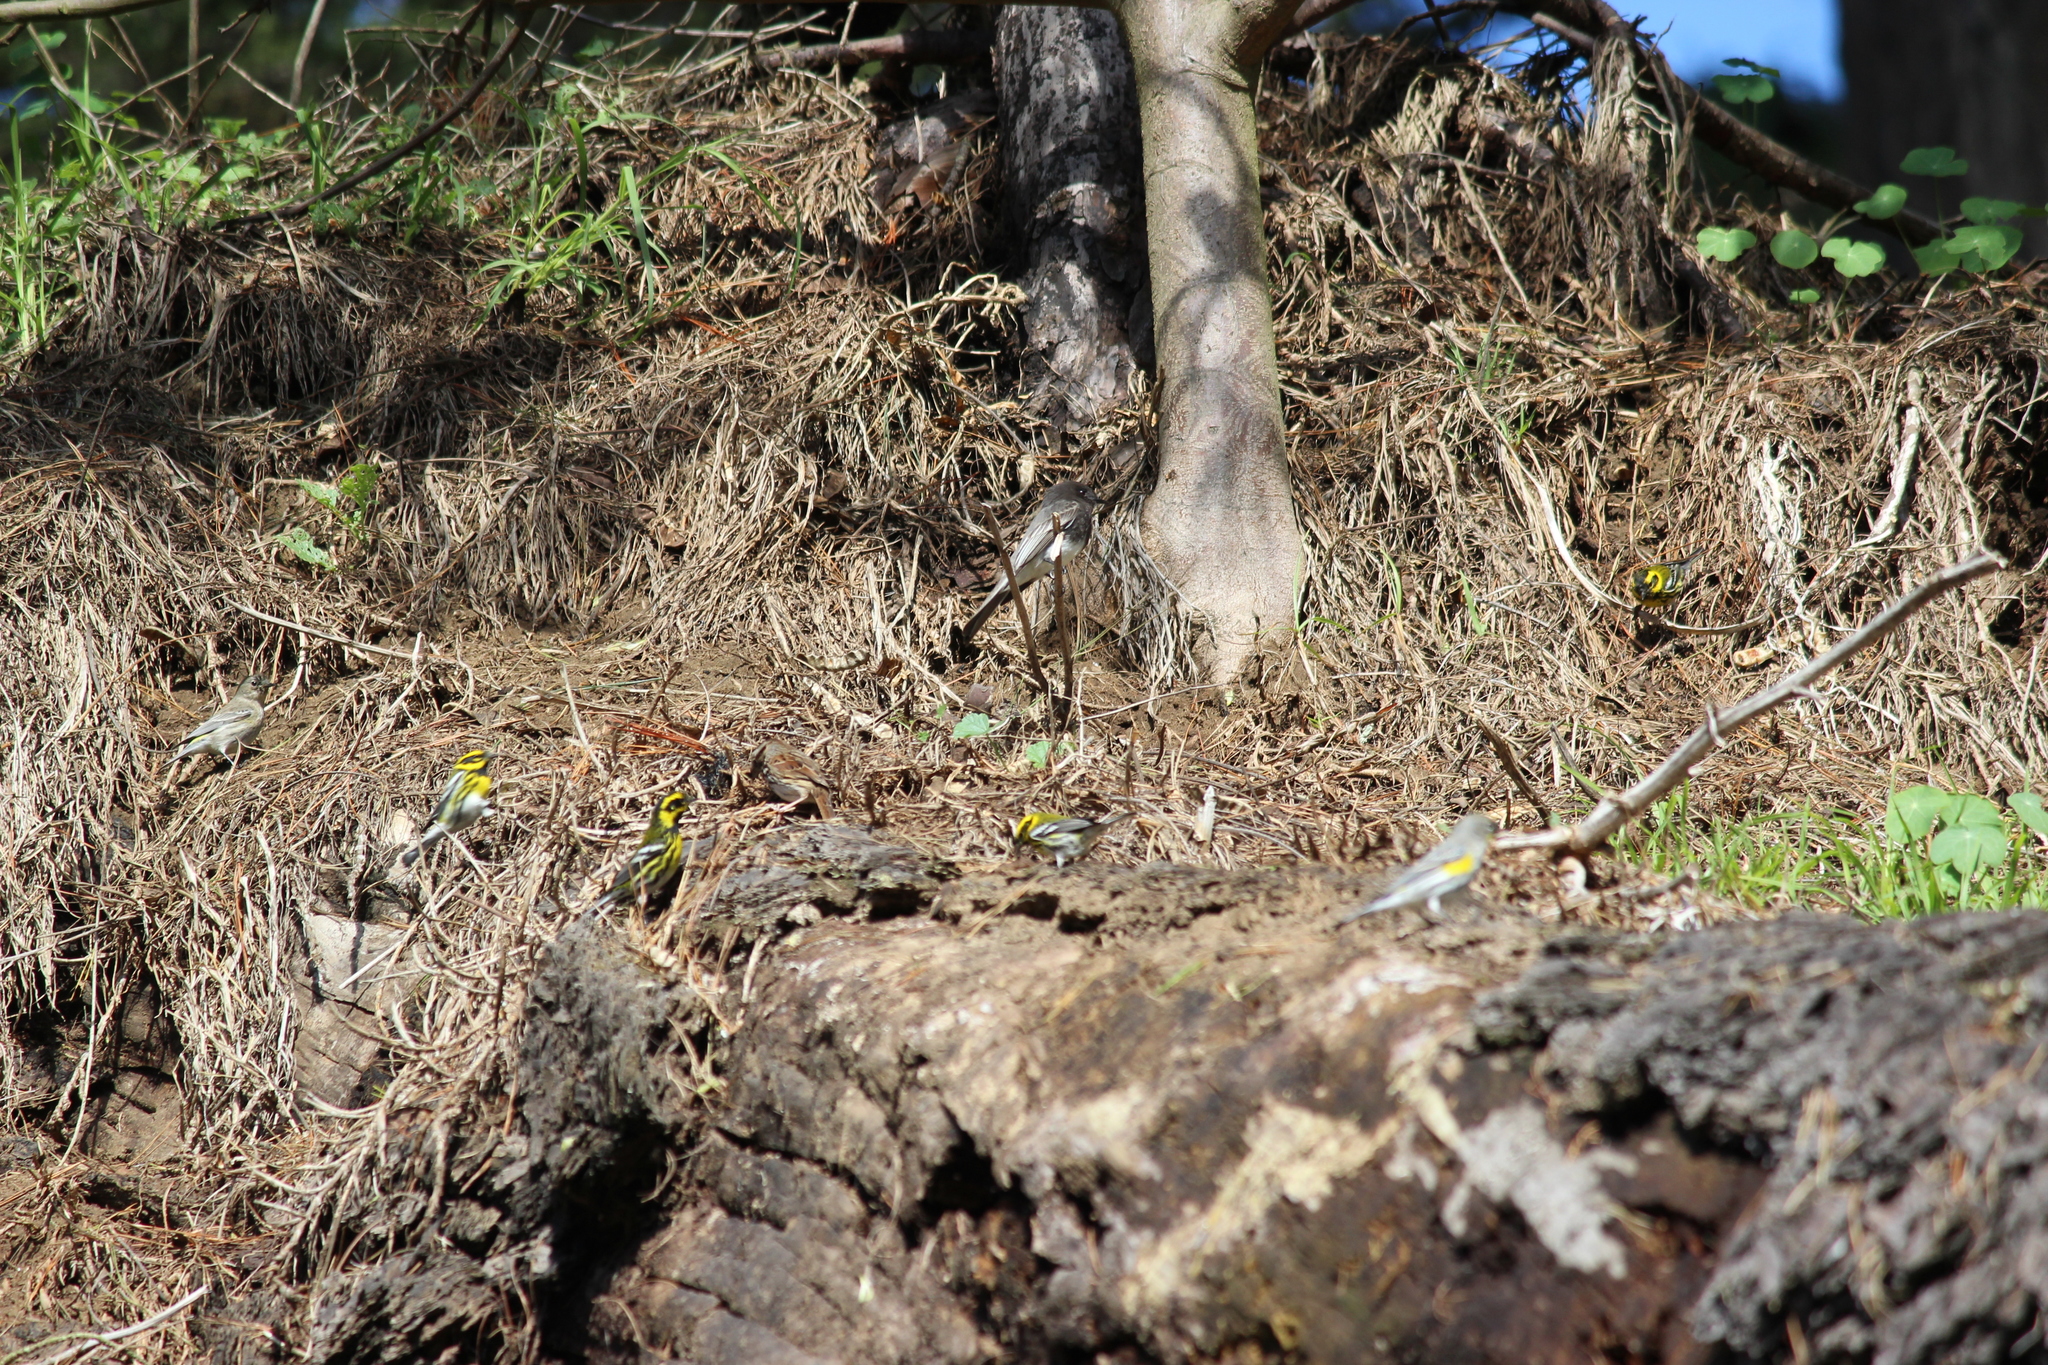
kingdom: Animalia
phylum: Chordata
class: Aves
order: Passeriformes
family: Parulidae
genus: Setophaga
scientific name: Setophaga townsendi
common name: Townsend's warbler
